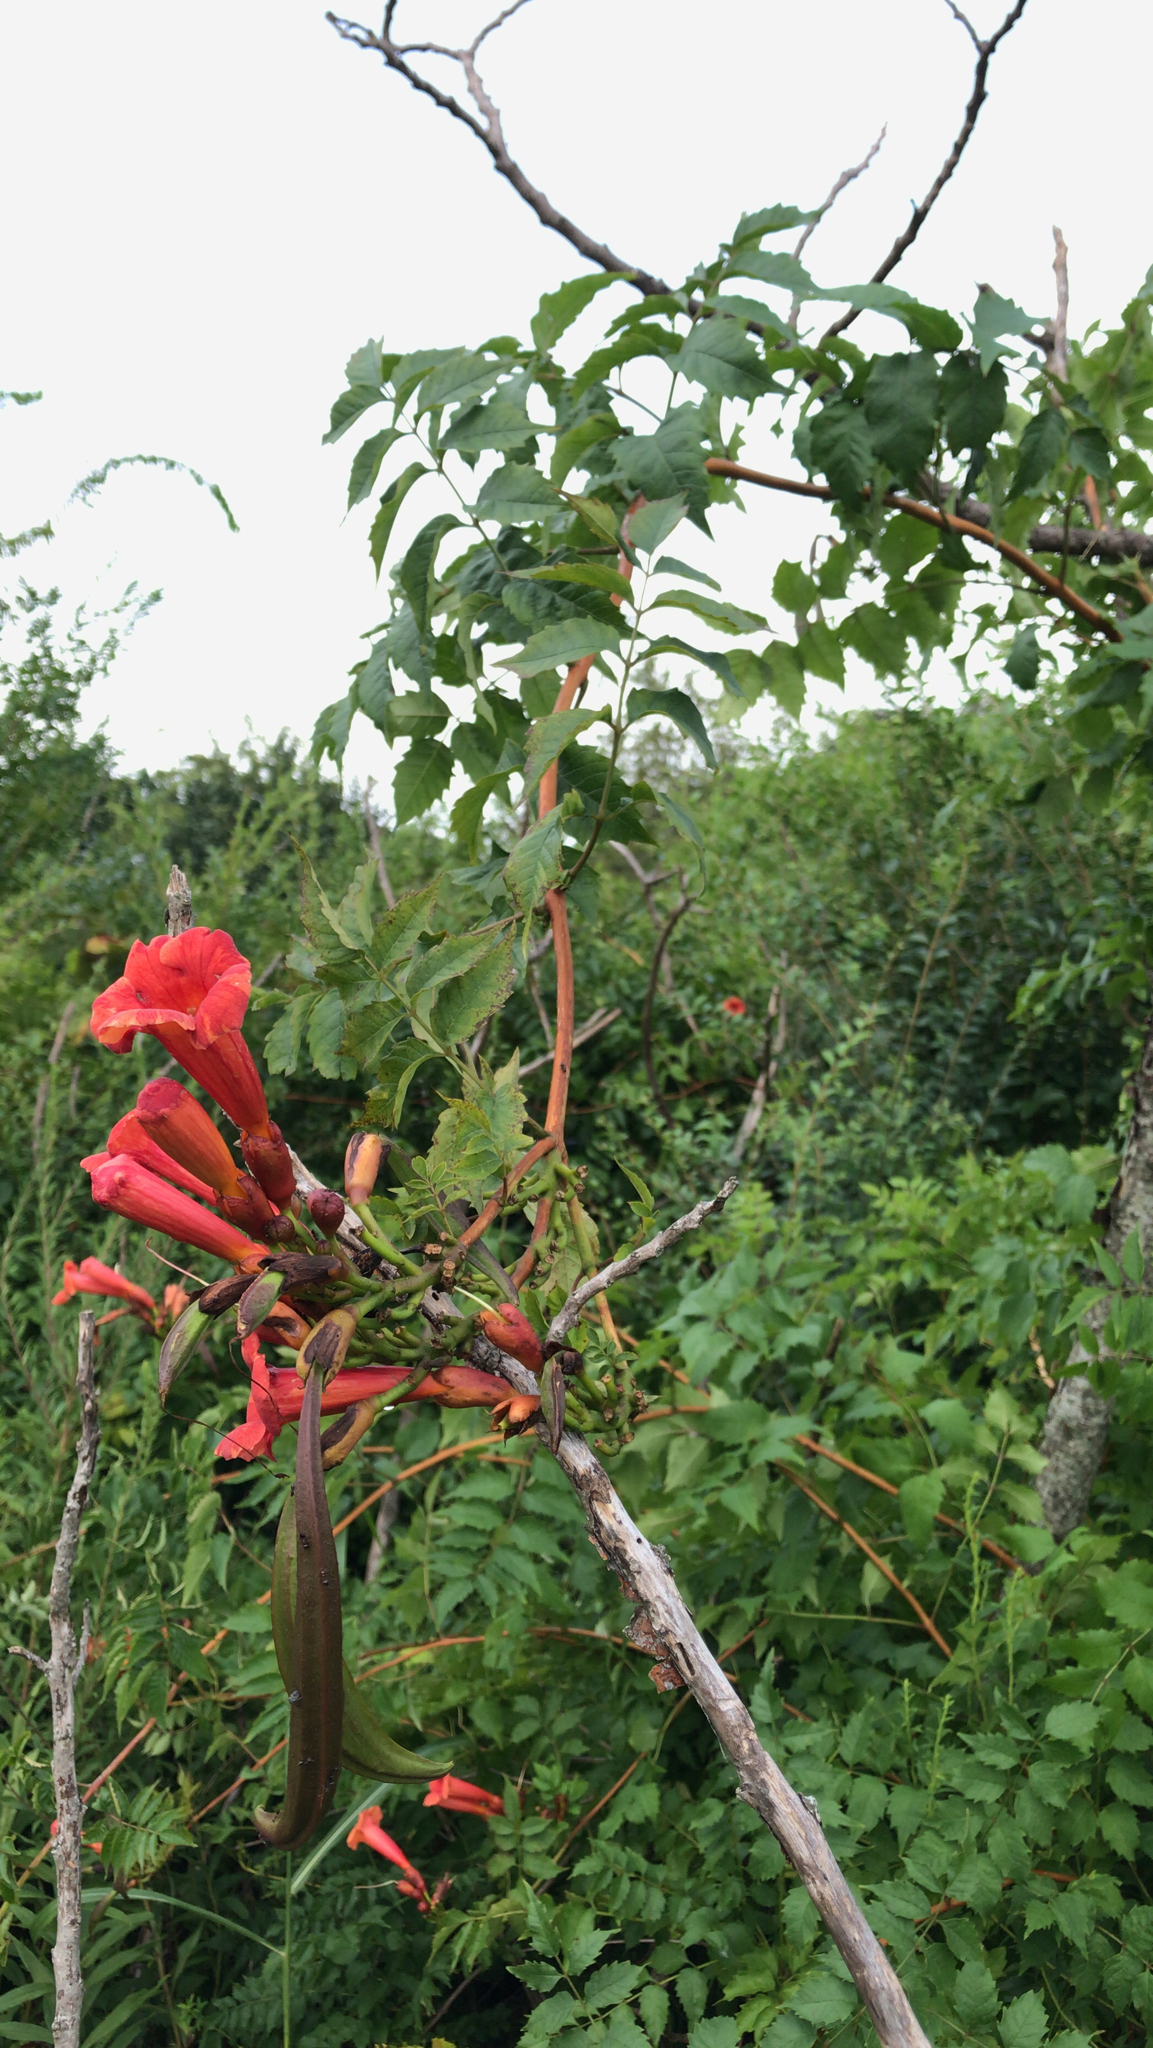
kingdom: Plantae
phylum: Tracheophyta
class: Magnoliopsida
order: Lamiales
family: Bignoniaceae
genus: Campsis
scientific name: Campsis radicans
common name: Trumpet-creeper
